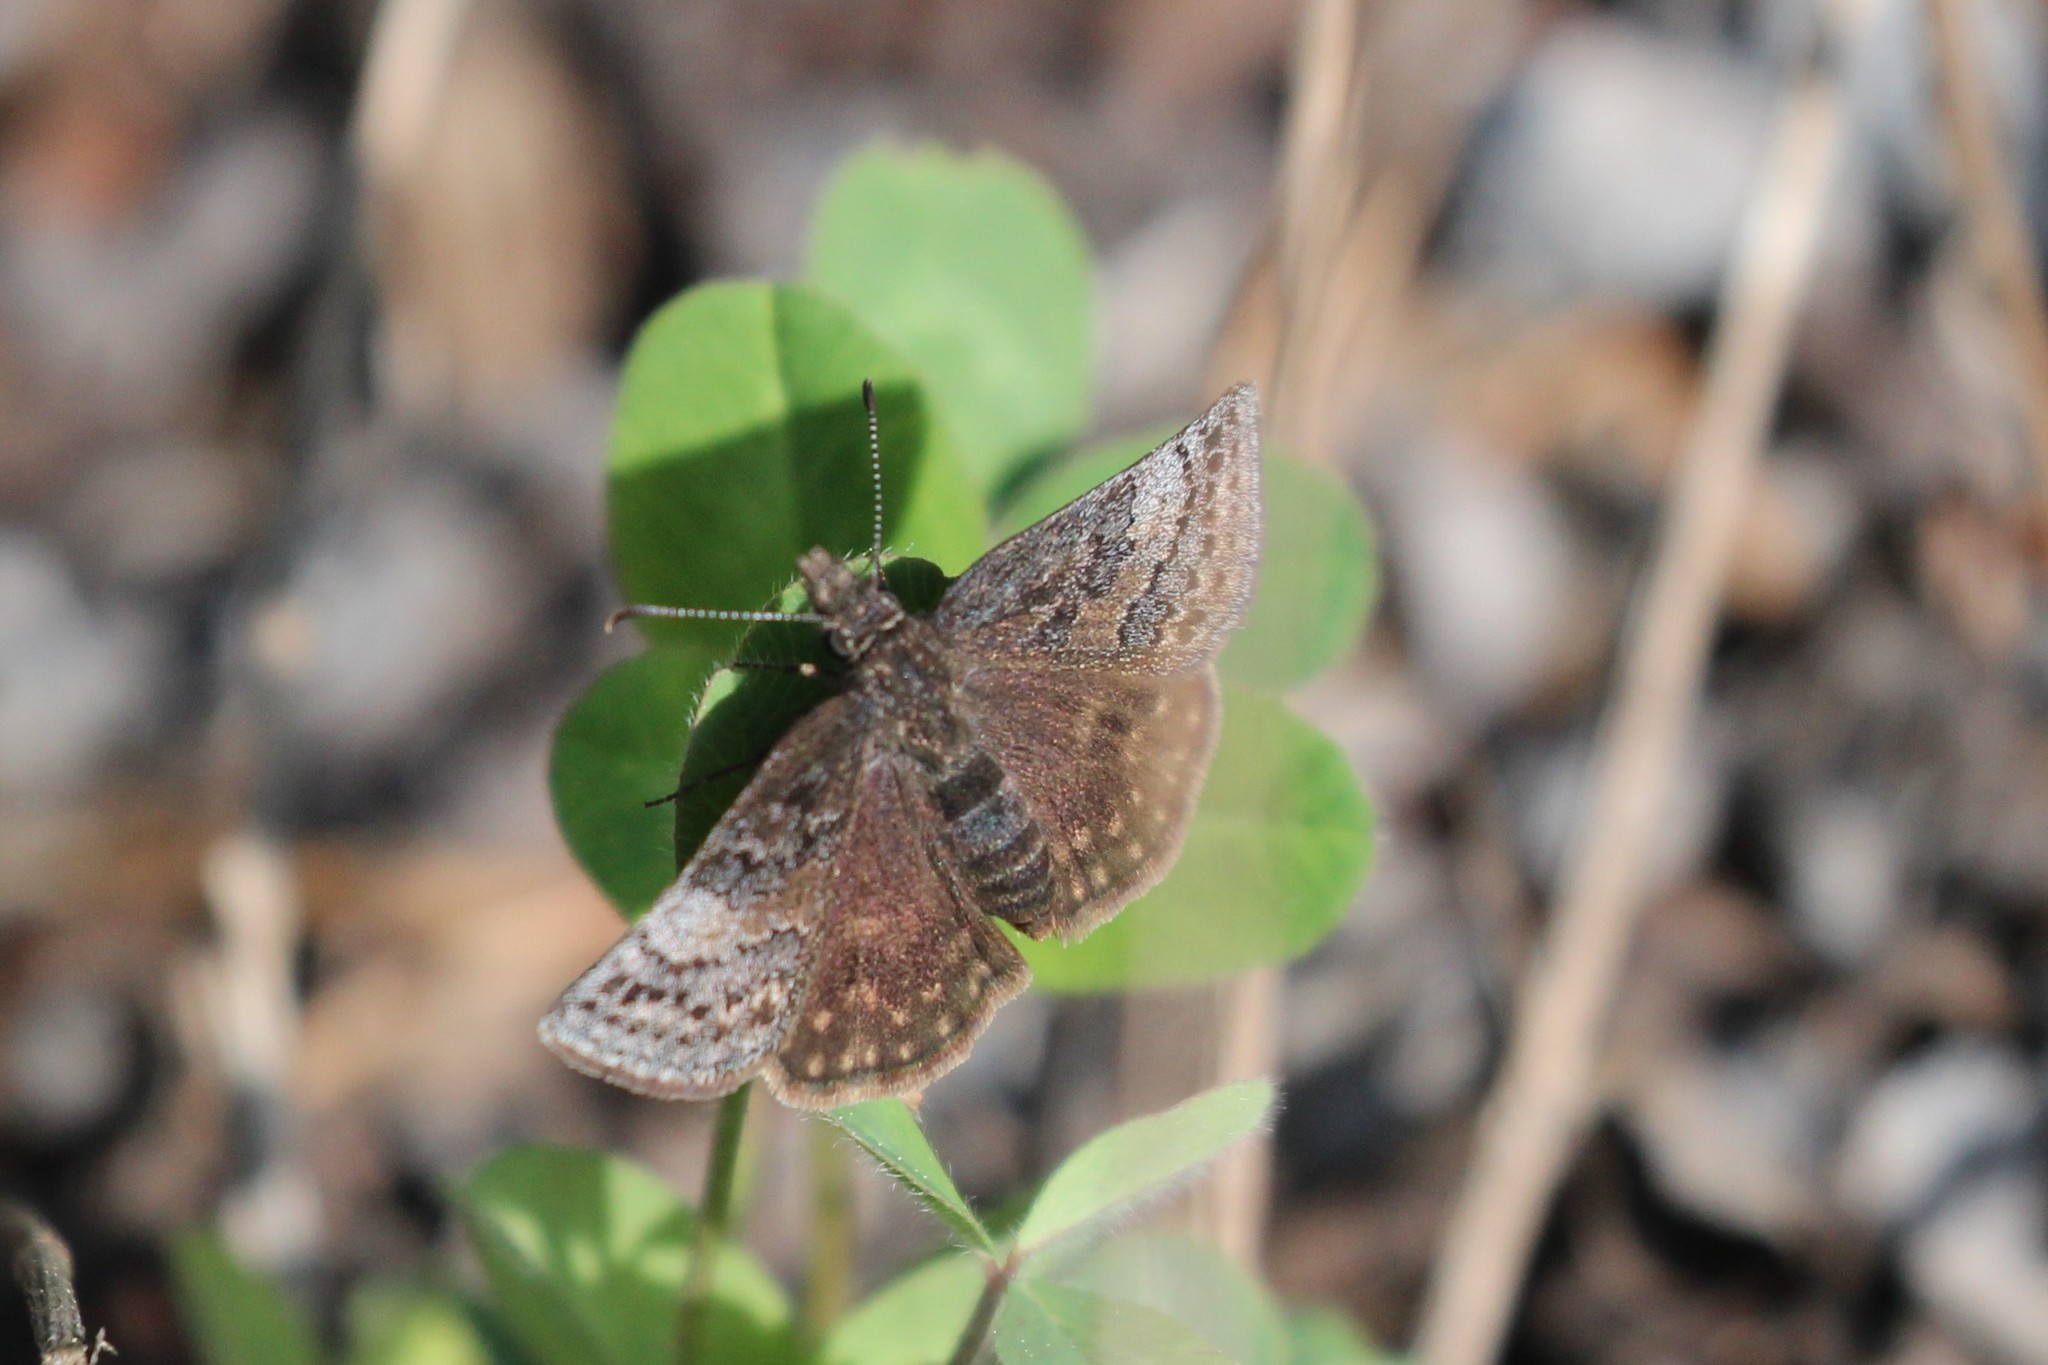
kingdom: Animalia
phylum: Arthropoda
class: Insecta
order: Lepidoptera
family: Hesperiidae
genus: Erynnis
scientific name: Erynnis icelus
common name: Dreamy duskywing
